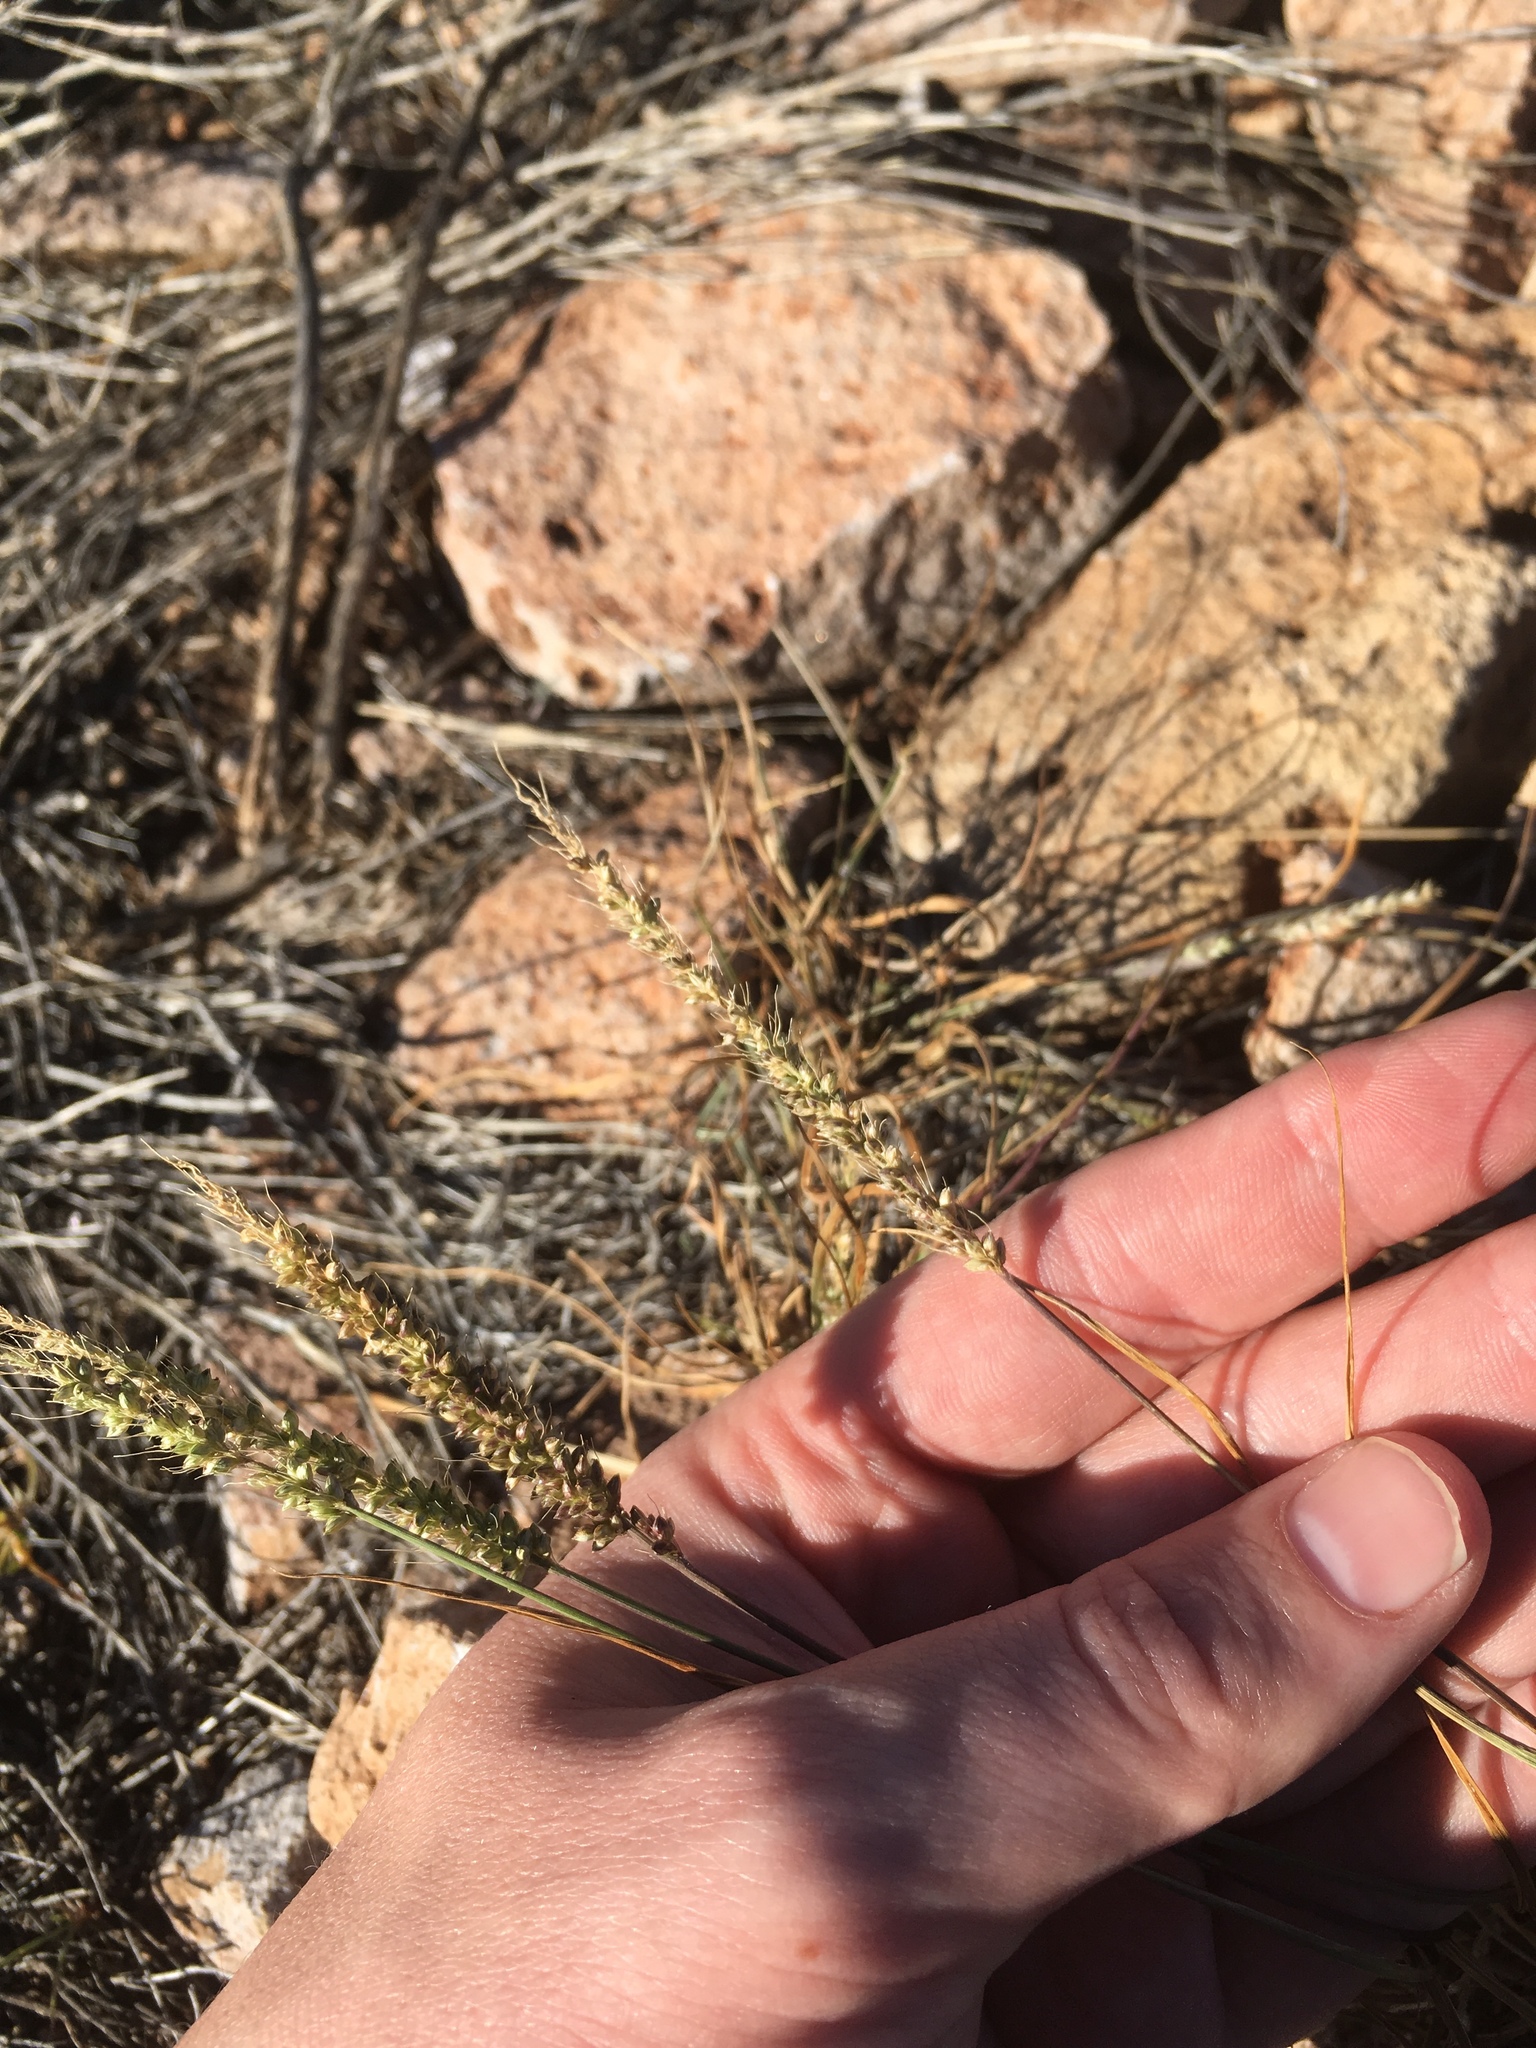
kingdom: Plantae
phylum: Tracheophyta
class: Liliopsida
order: Poales
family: Poaceae
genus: Setaria
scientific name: Setaria leucopila
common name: Plains bristle grass
